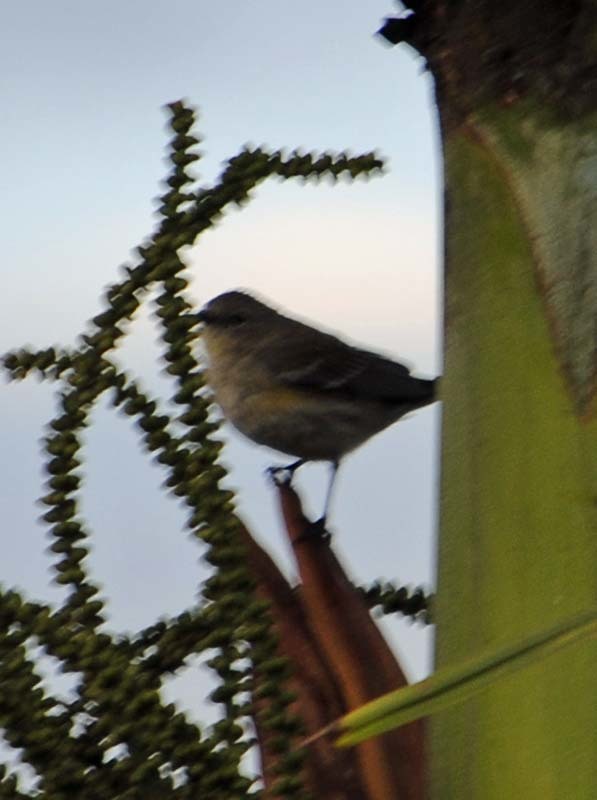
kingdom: Animalia
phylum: Chordata
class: Aves
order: Passeriformes
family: Parulidae
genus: Setophaga
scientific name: Setophaga coronata
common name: Myrtle warbler
